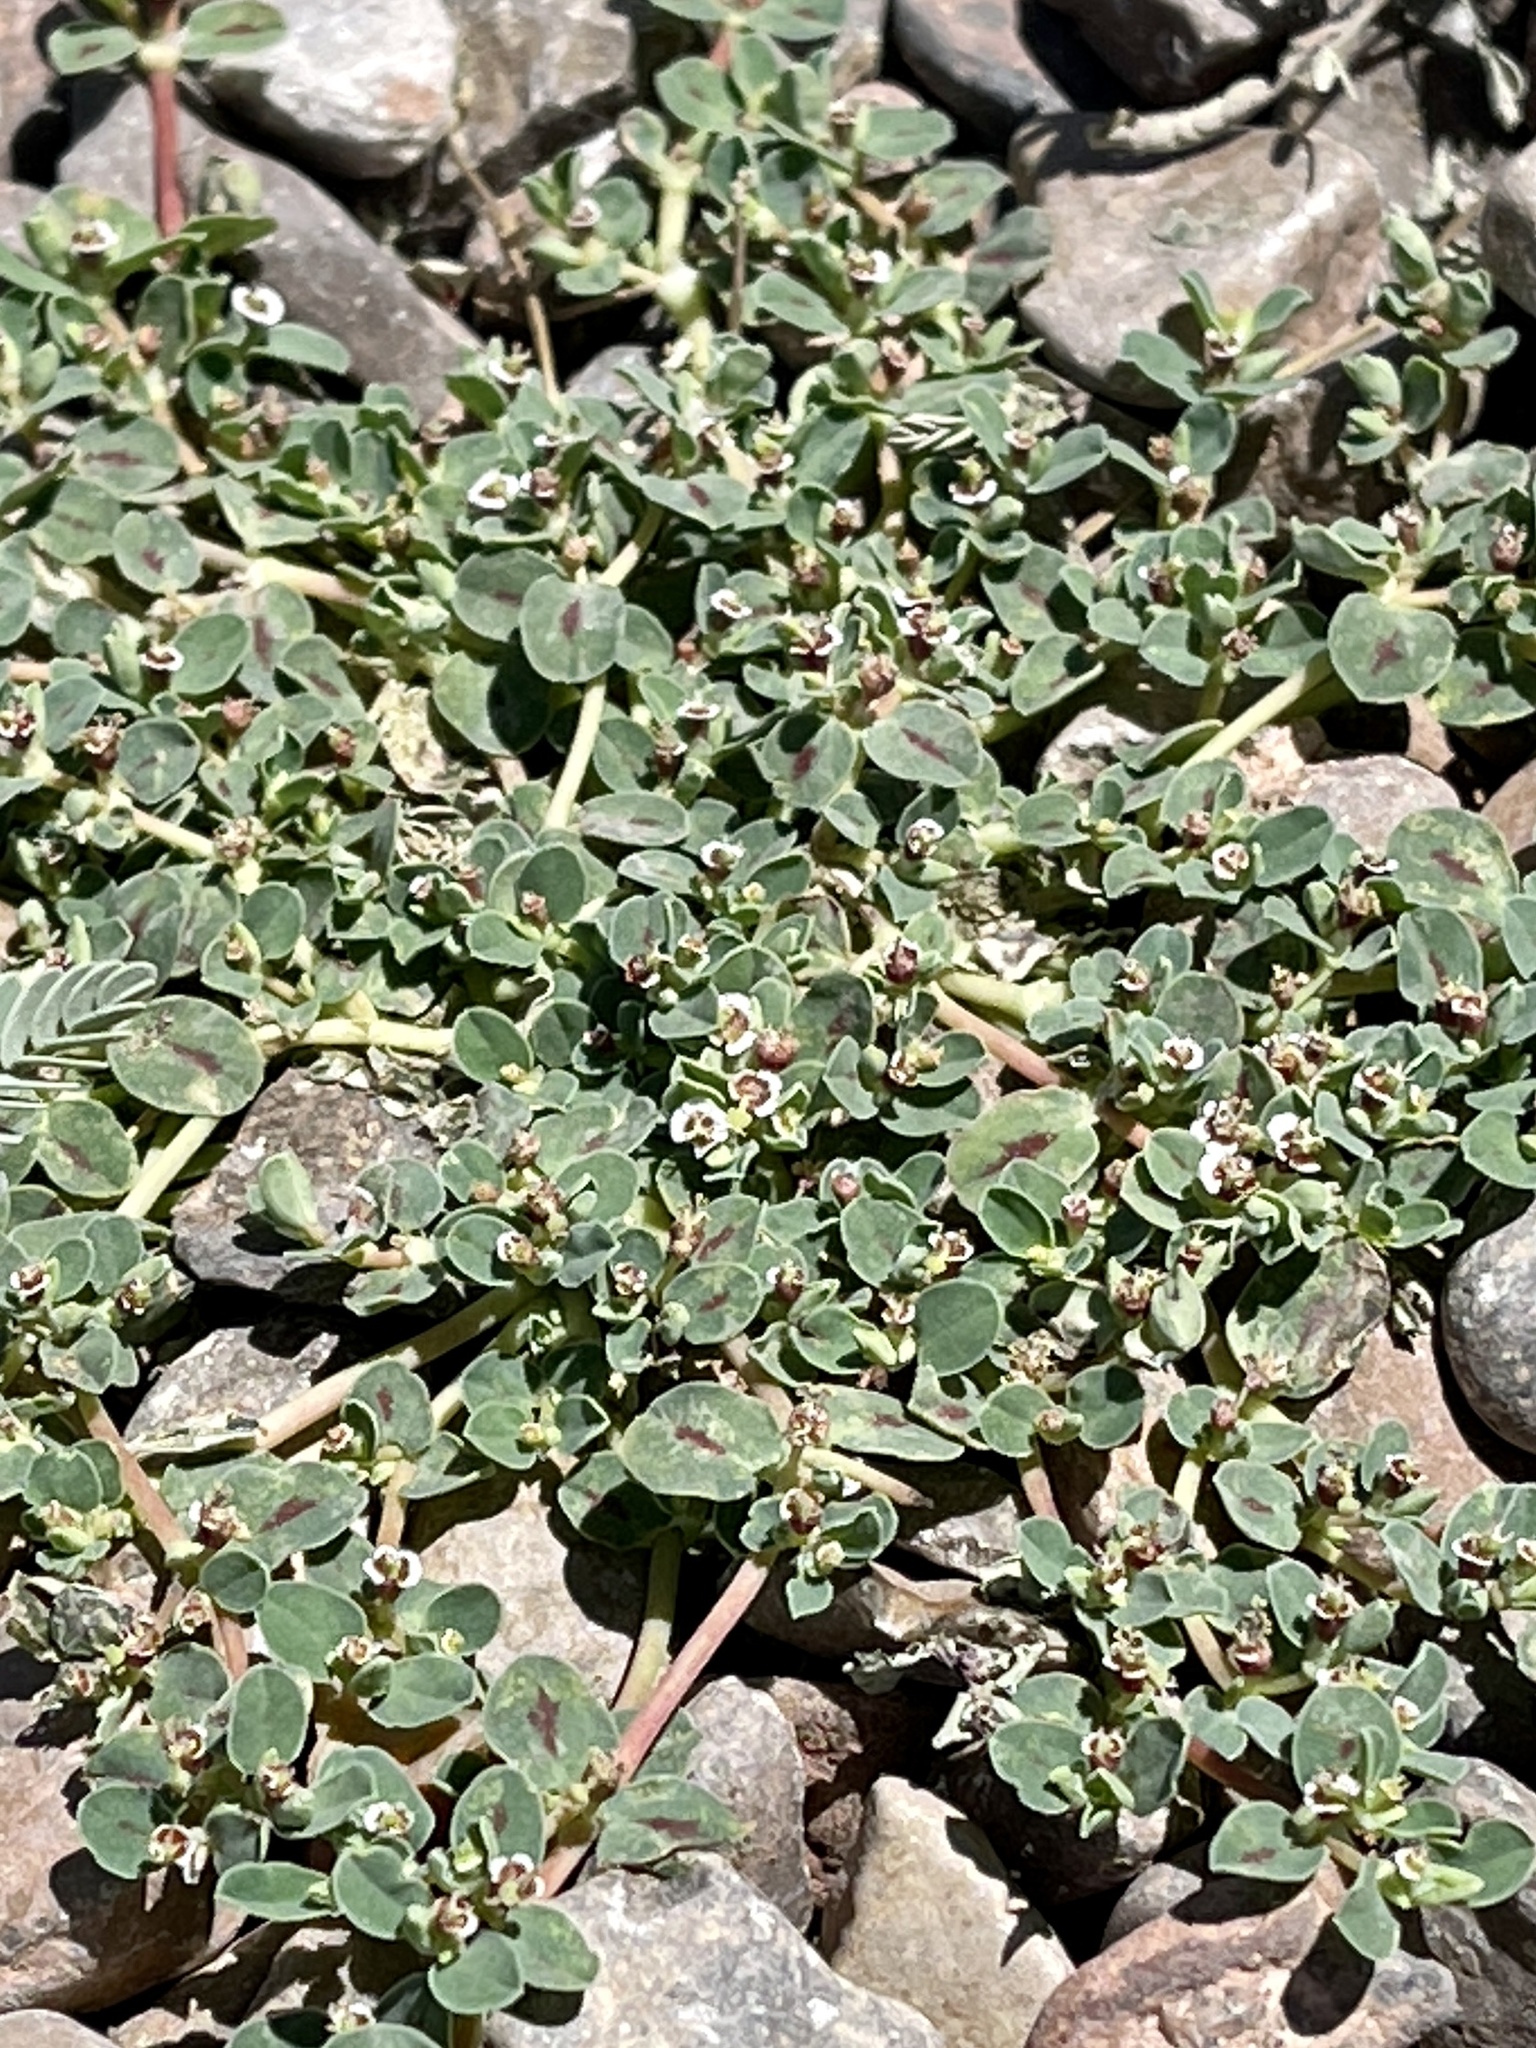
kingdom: Plantae
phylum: Tracheophyta
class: Magnoliopsida
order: Malpighiales
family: Euphorbiaceae
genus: Euphorbia
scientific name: Euphorbia albomarginata
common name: Whitemargin sandmat
